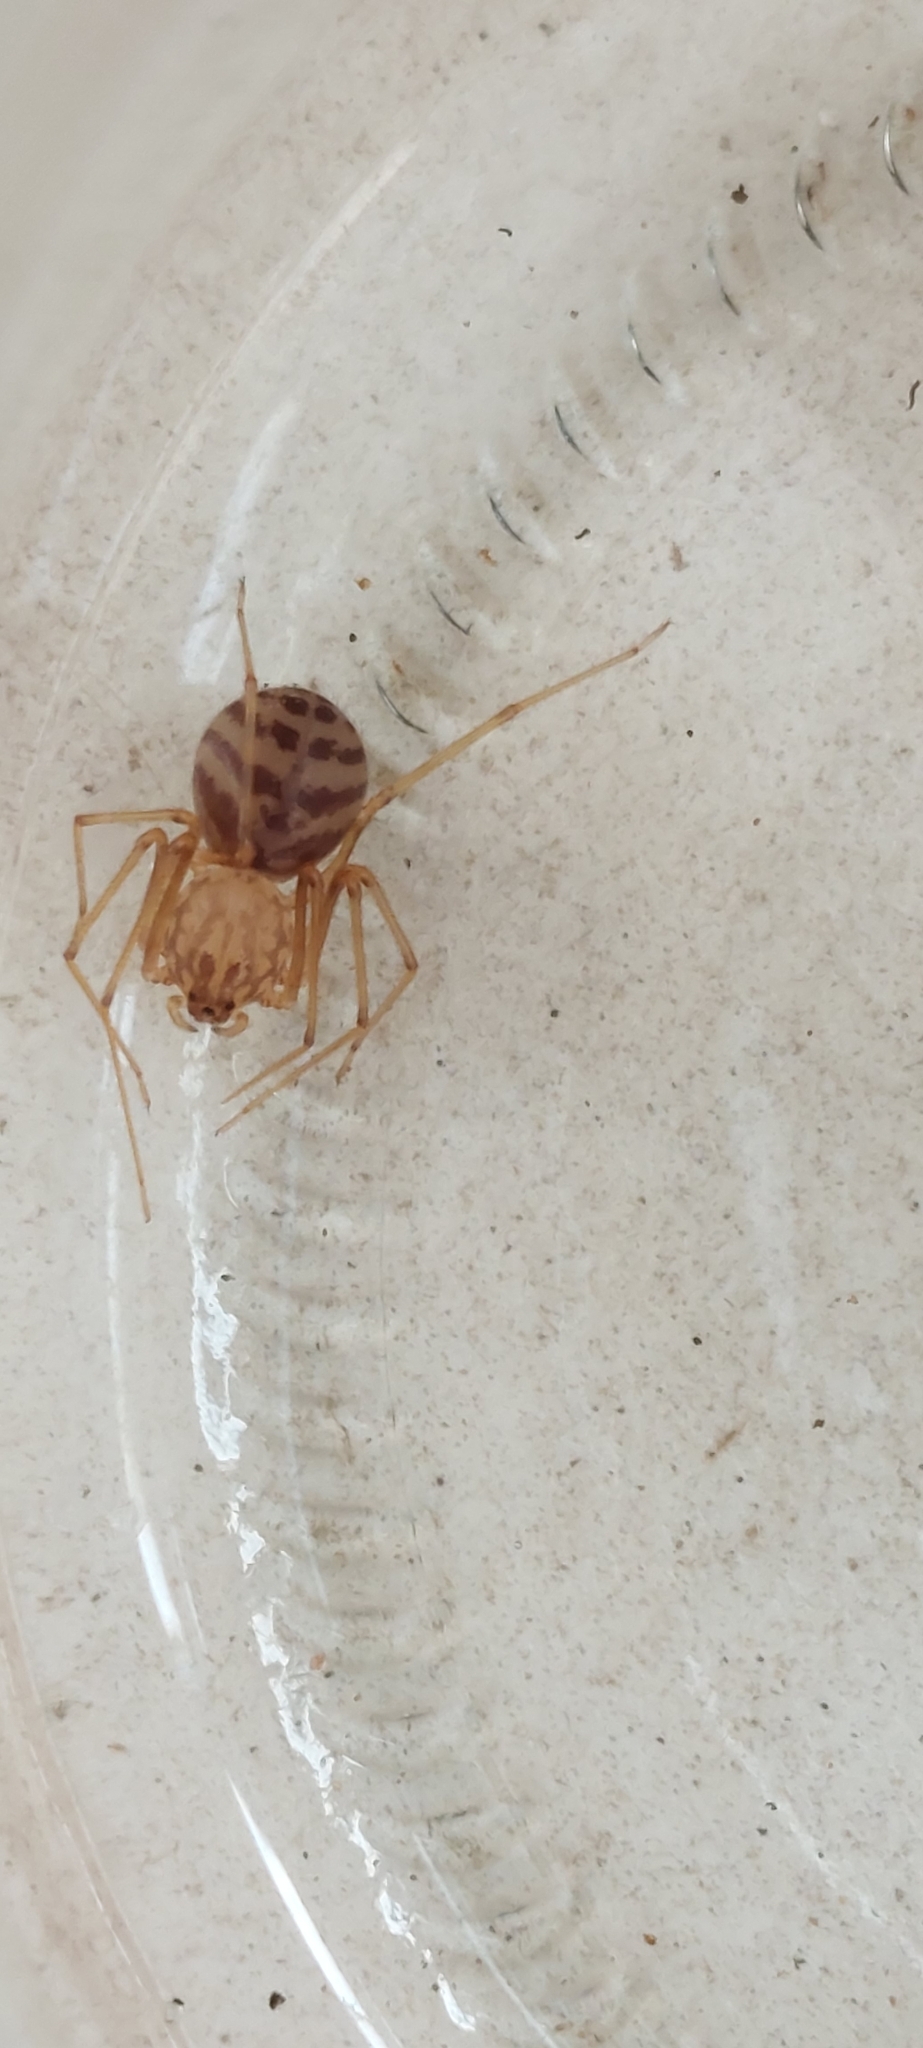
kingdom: Animalia
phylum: Arthropoda
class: Arachnida
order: Araneae
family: Scytodidae
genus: Scytodes
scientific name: Scytodes univittata
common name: Spitting spider
